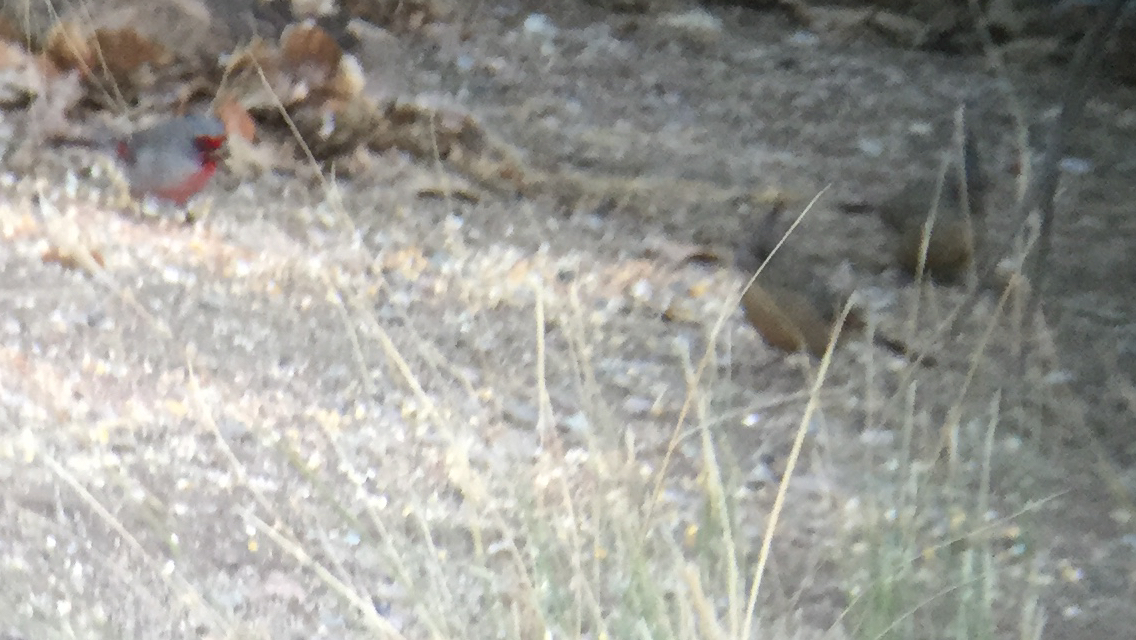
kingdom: Animalia
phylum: Chordata
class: Aves
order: Passeriformes
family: Cardinalidae
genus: Cardinalis
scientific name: Cardinalis sinuatus
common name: Pyrrhuloxia
